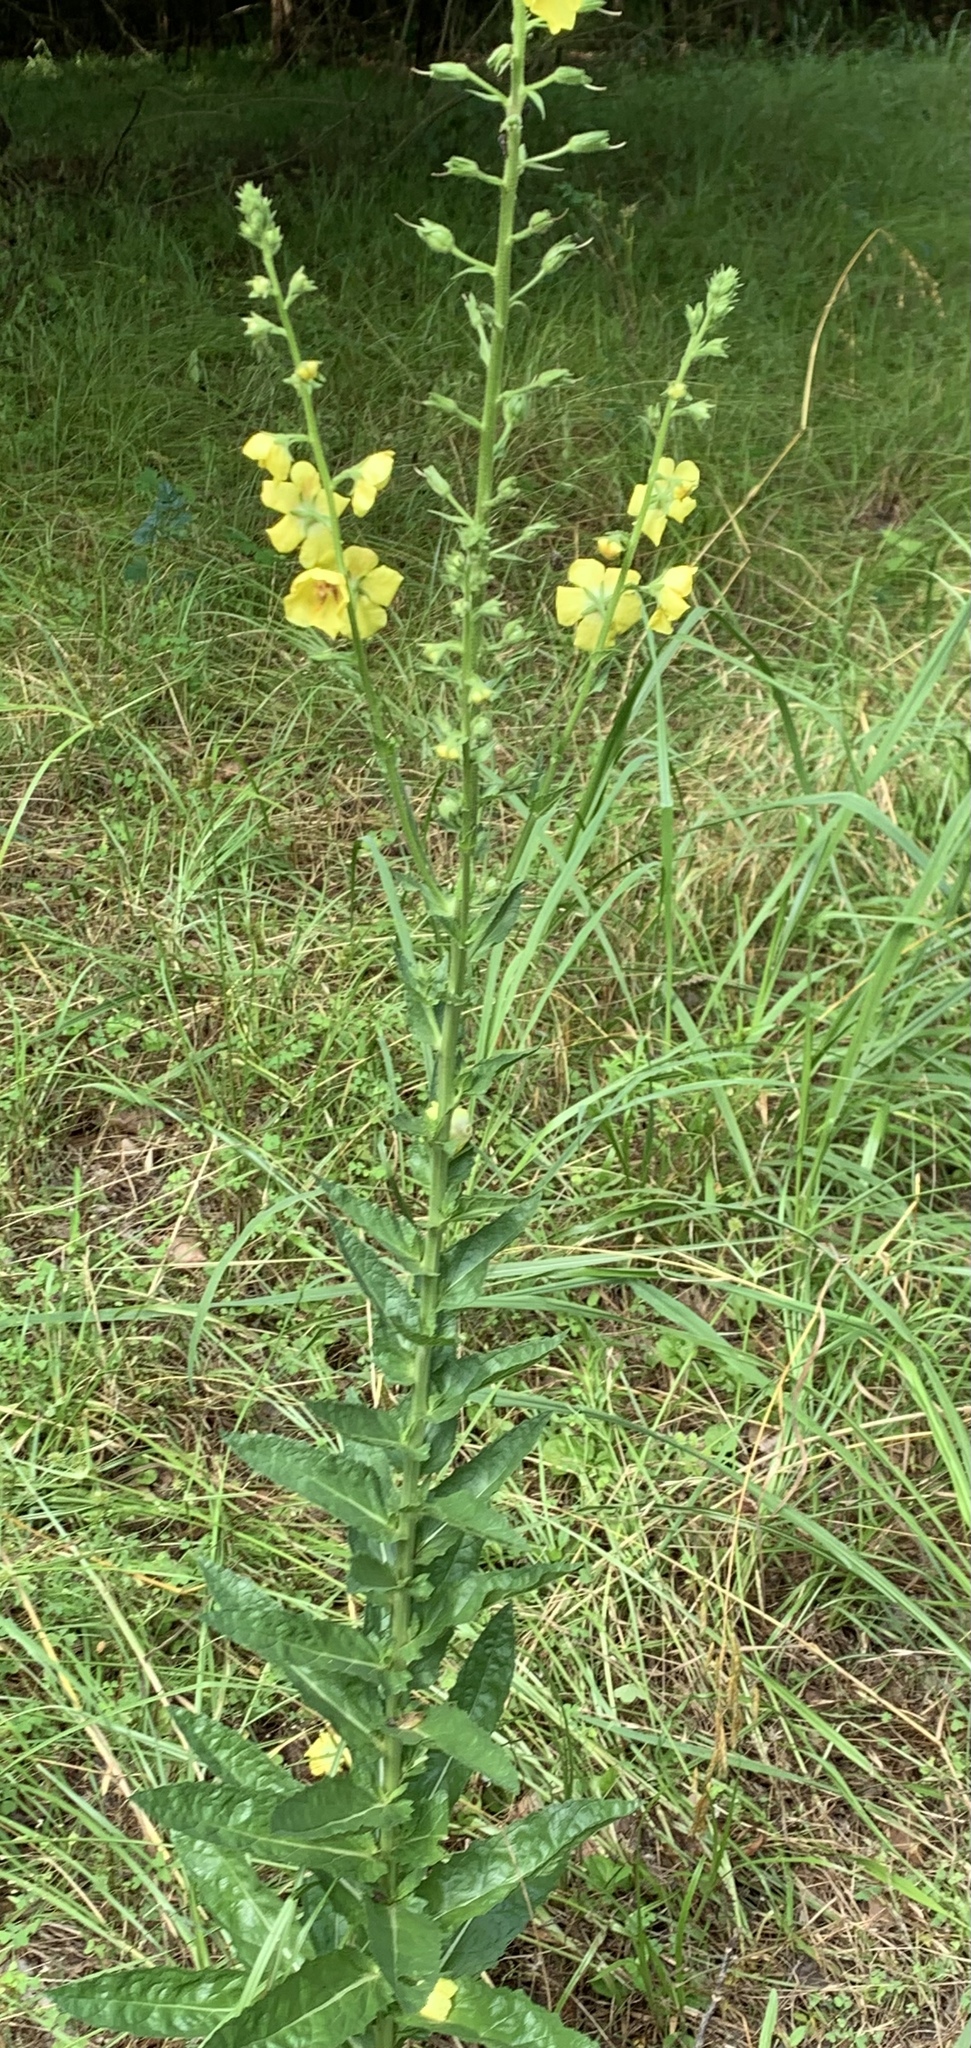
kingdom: Plantae
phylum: Tracheophyta
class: Magnoliopsida
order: Lamiales
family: Scrophulariaceae
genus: Verbascum
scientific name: Verbascum blattaria
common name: Moth mullein
